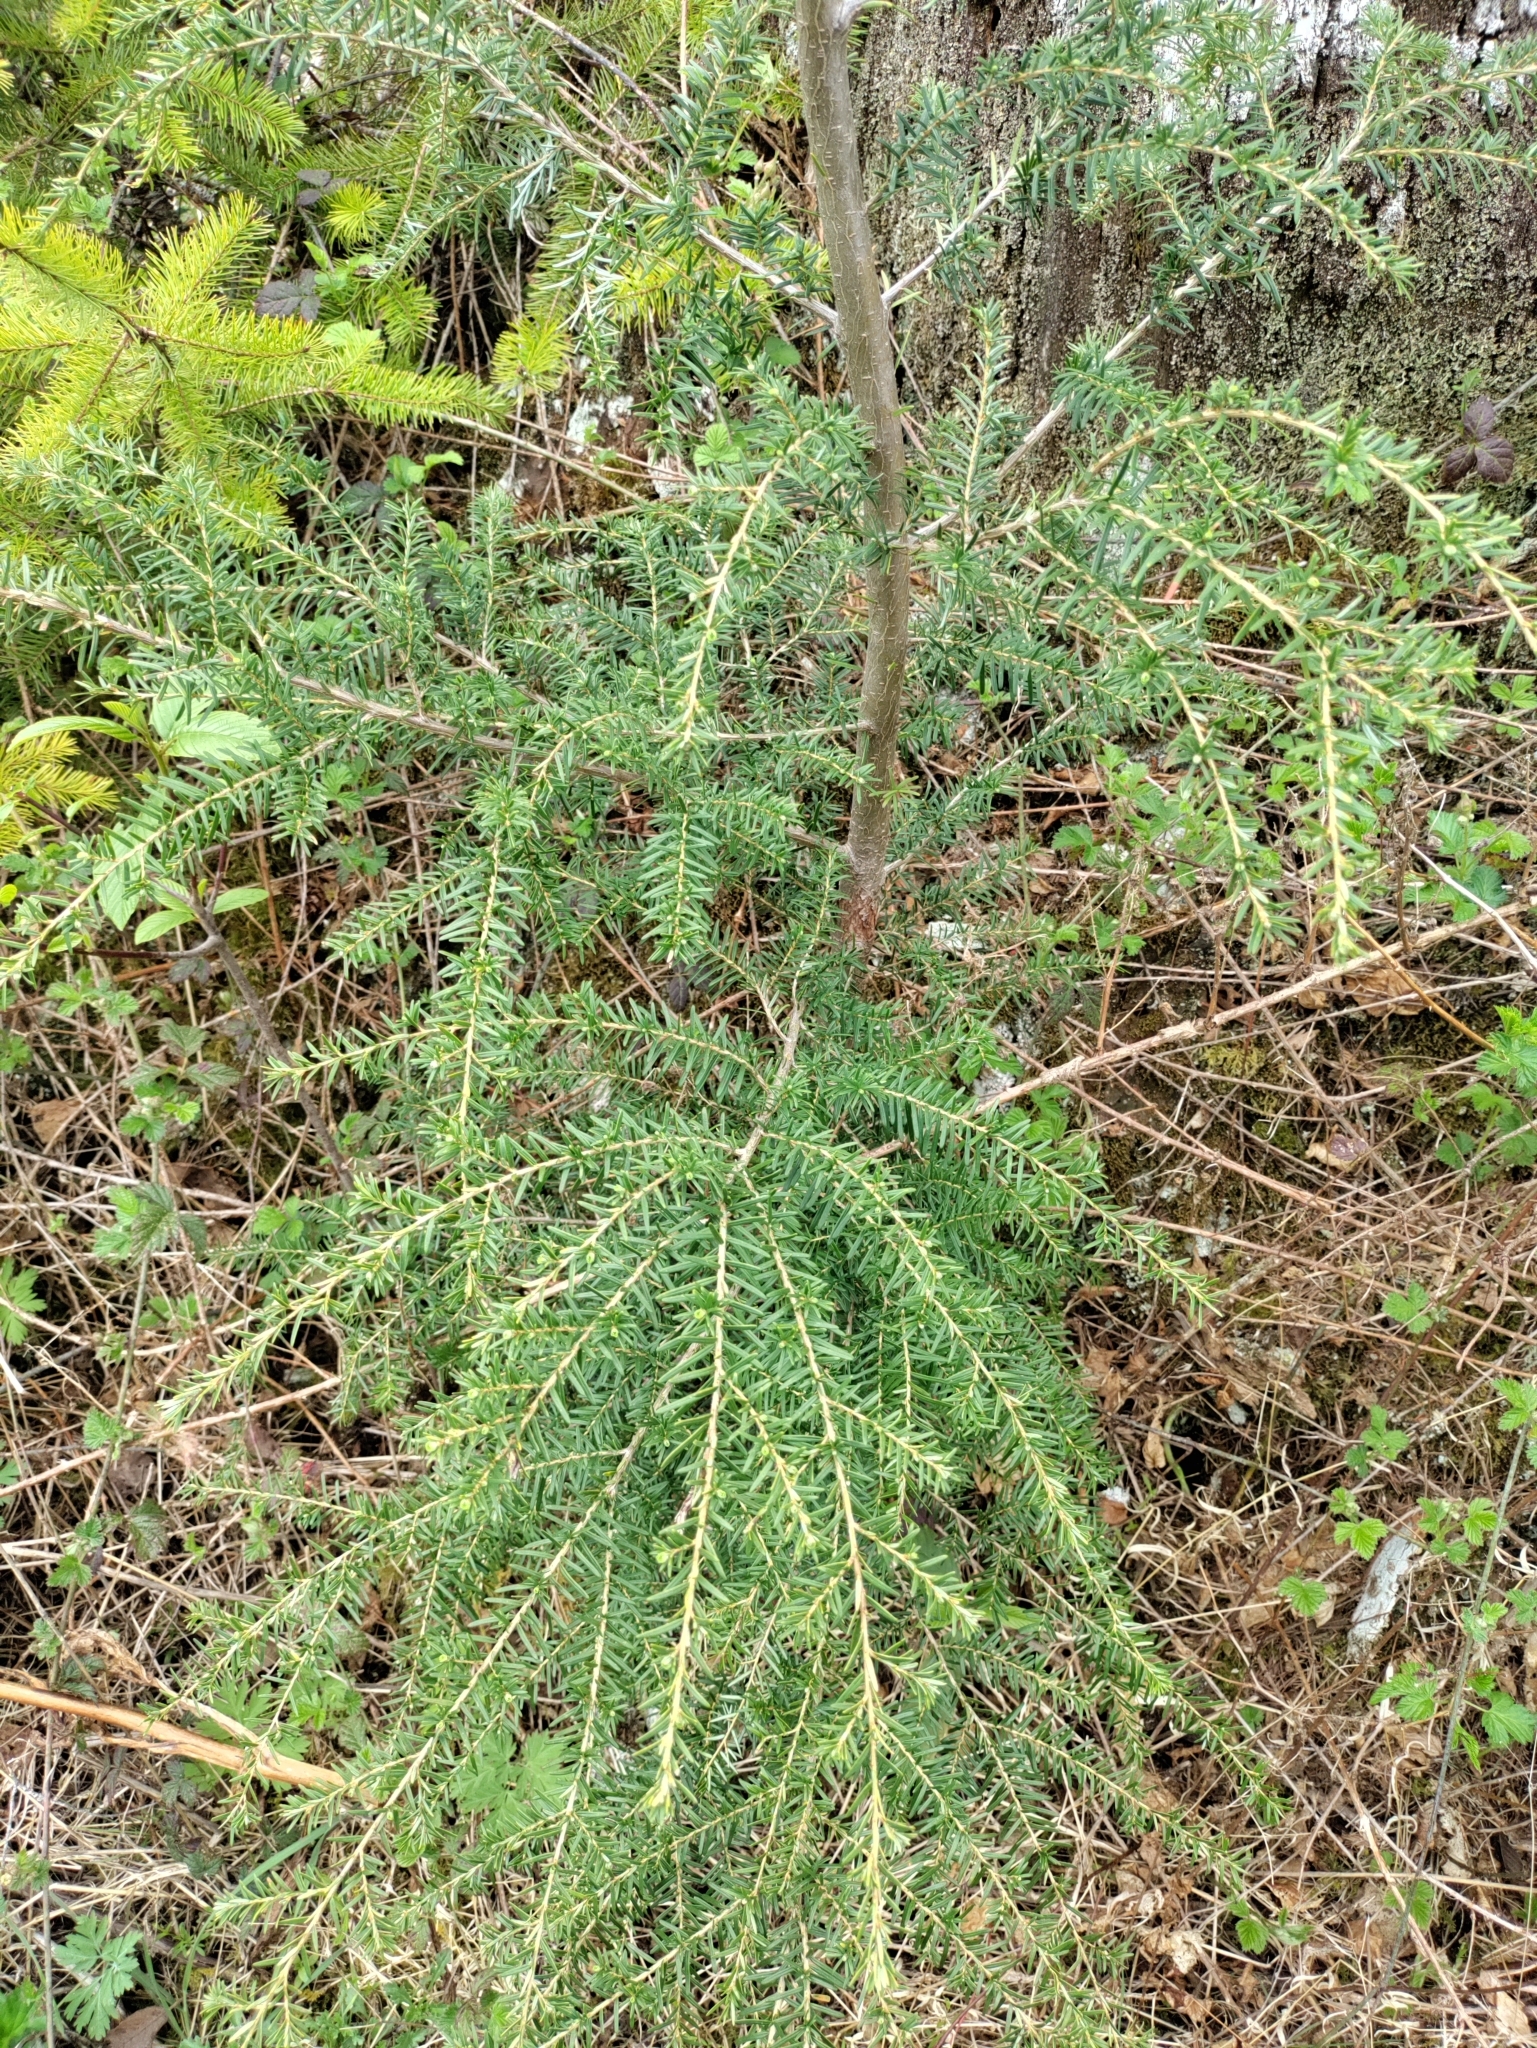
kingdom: Plantae
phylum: Tracheophyta
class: Pinopsida
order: Pinales
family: Pinaceae
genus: Tsuga
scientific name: Tsuga heterophylla
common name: Western hemlock
